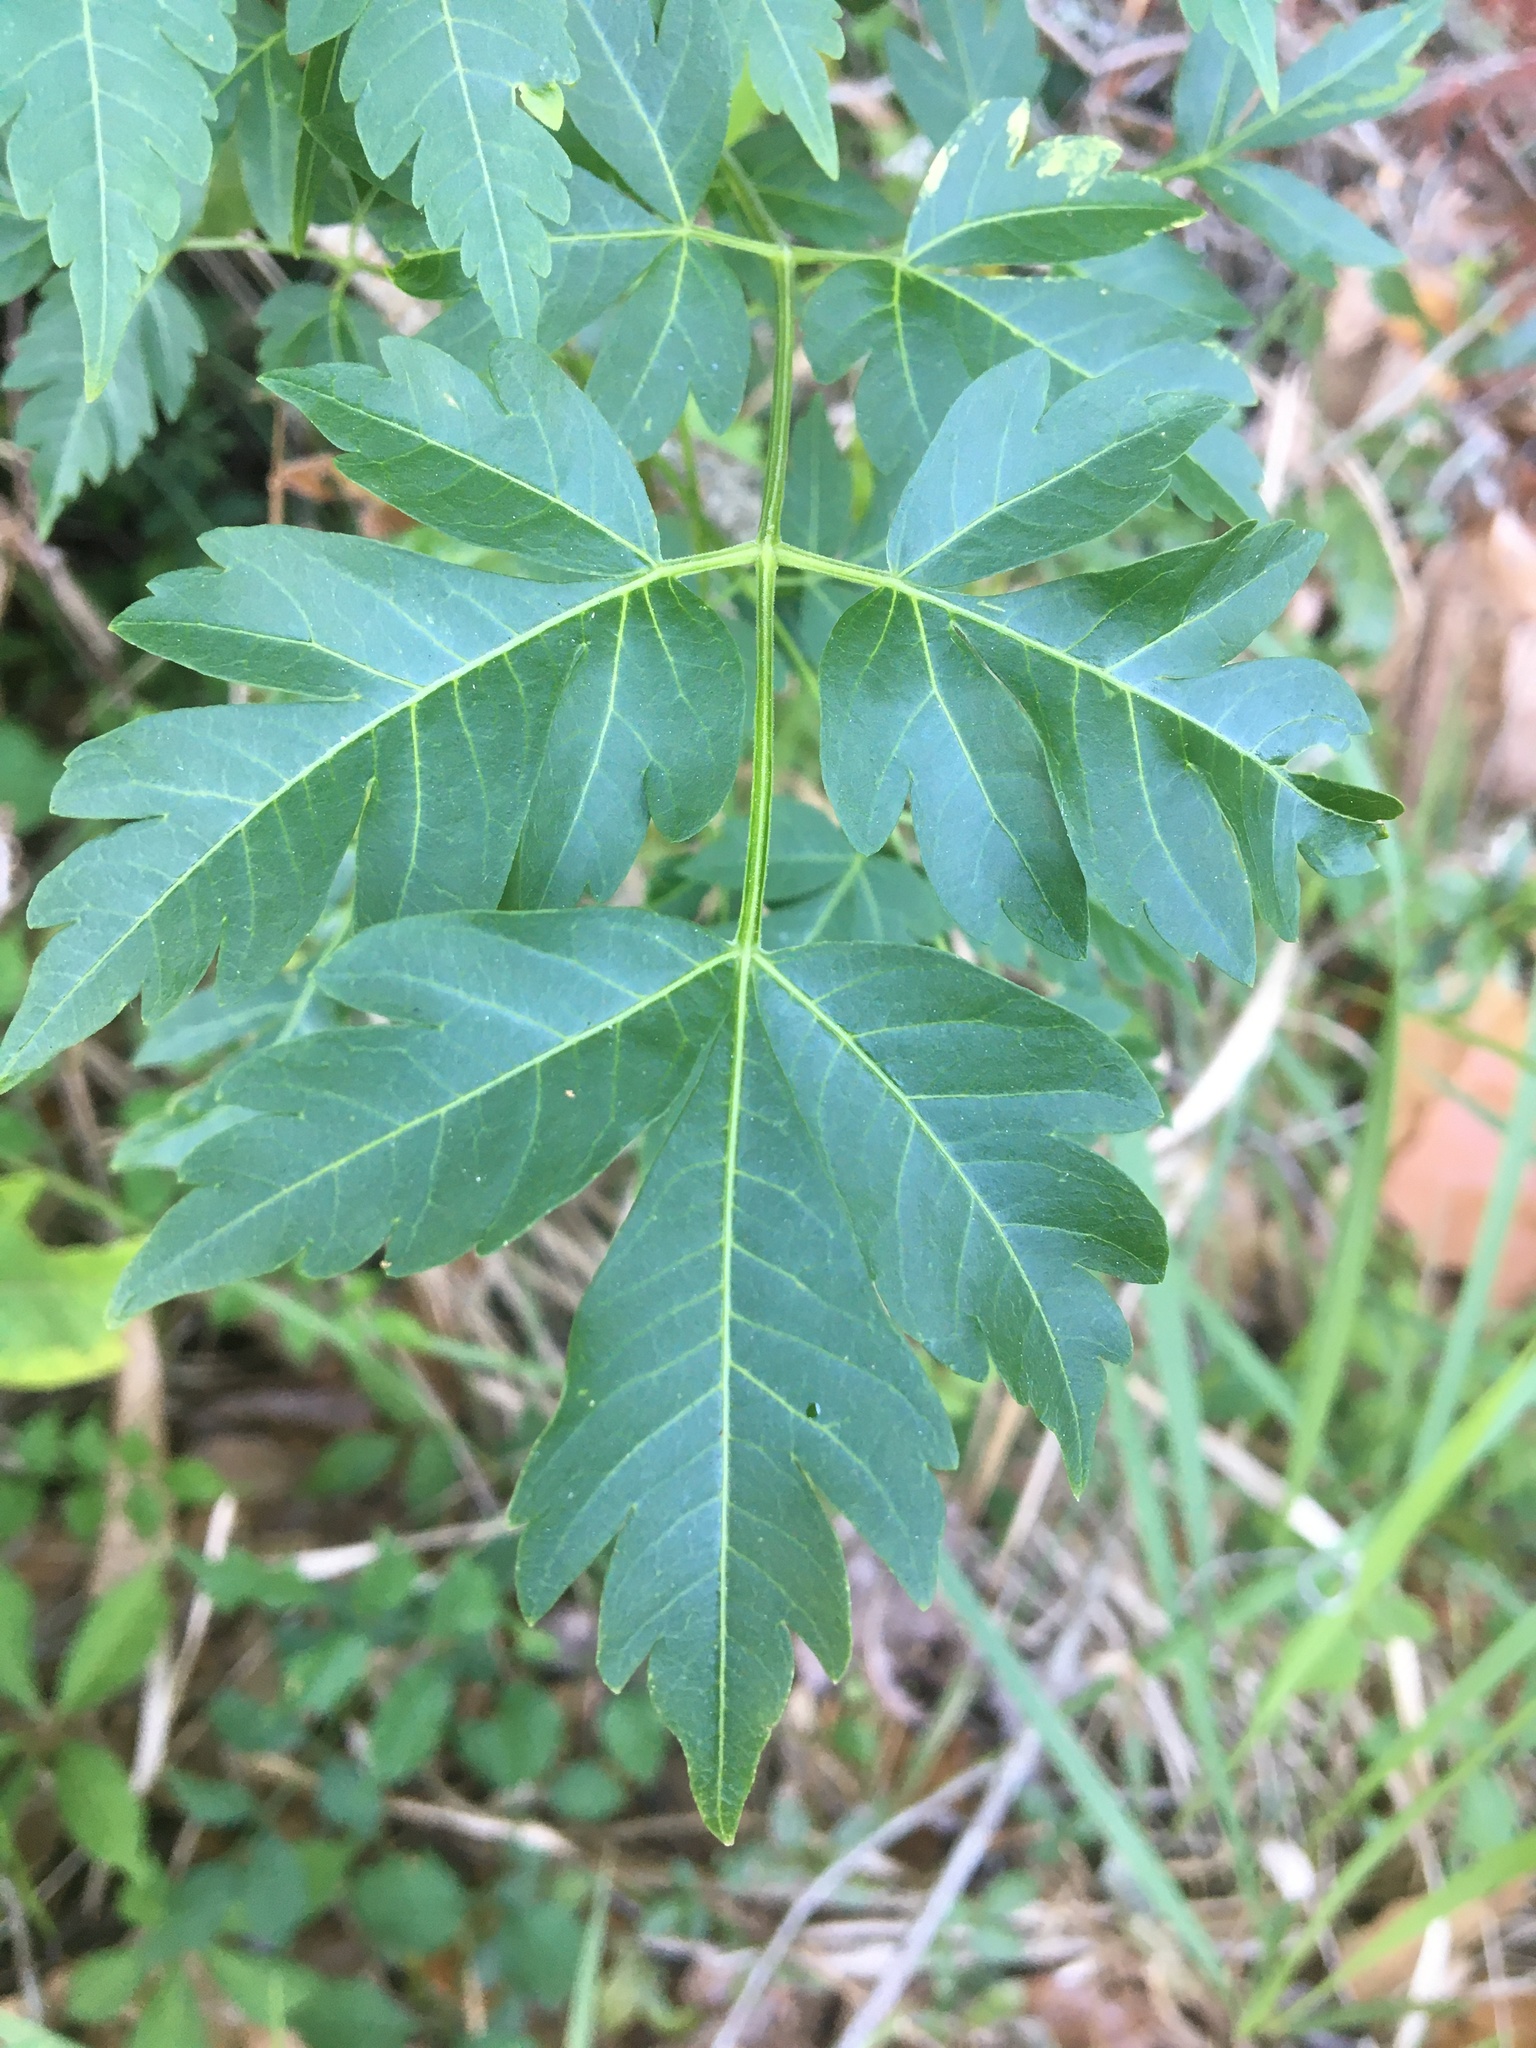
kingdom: Plantae
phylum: Tracheophyta
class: Magnoliopsida
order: Sapindales
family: Meliaceae
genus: Melia
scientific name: Melia azedarach
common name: Chinaberrytree
